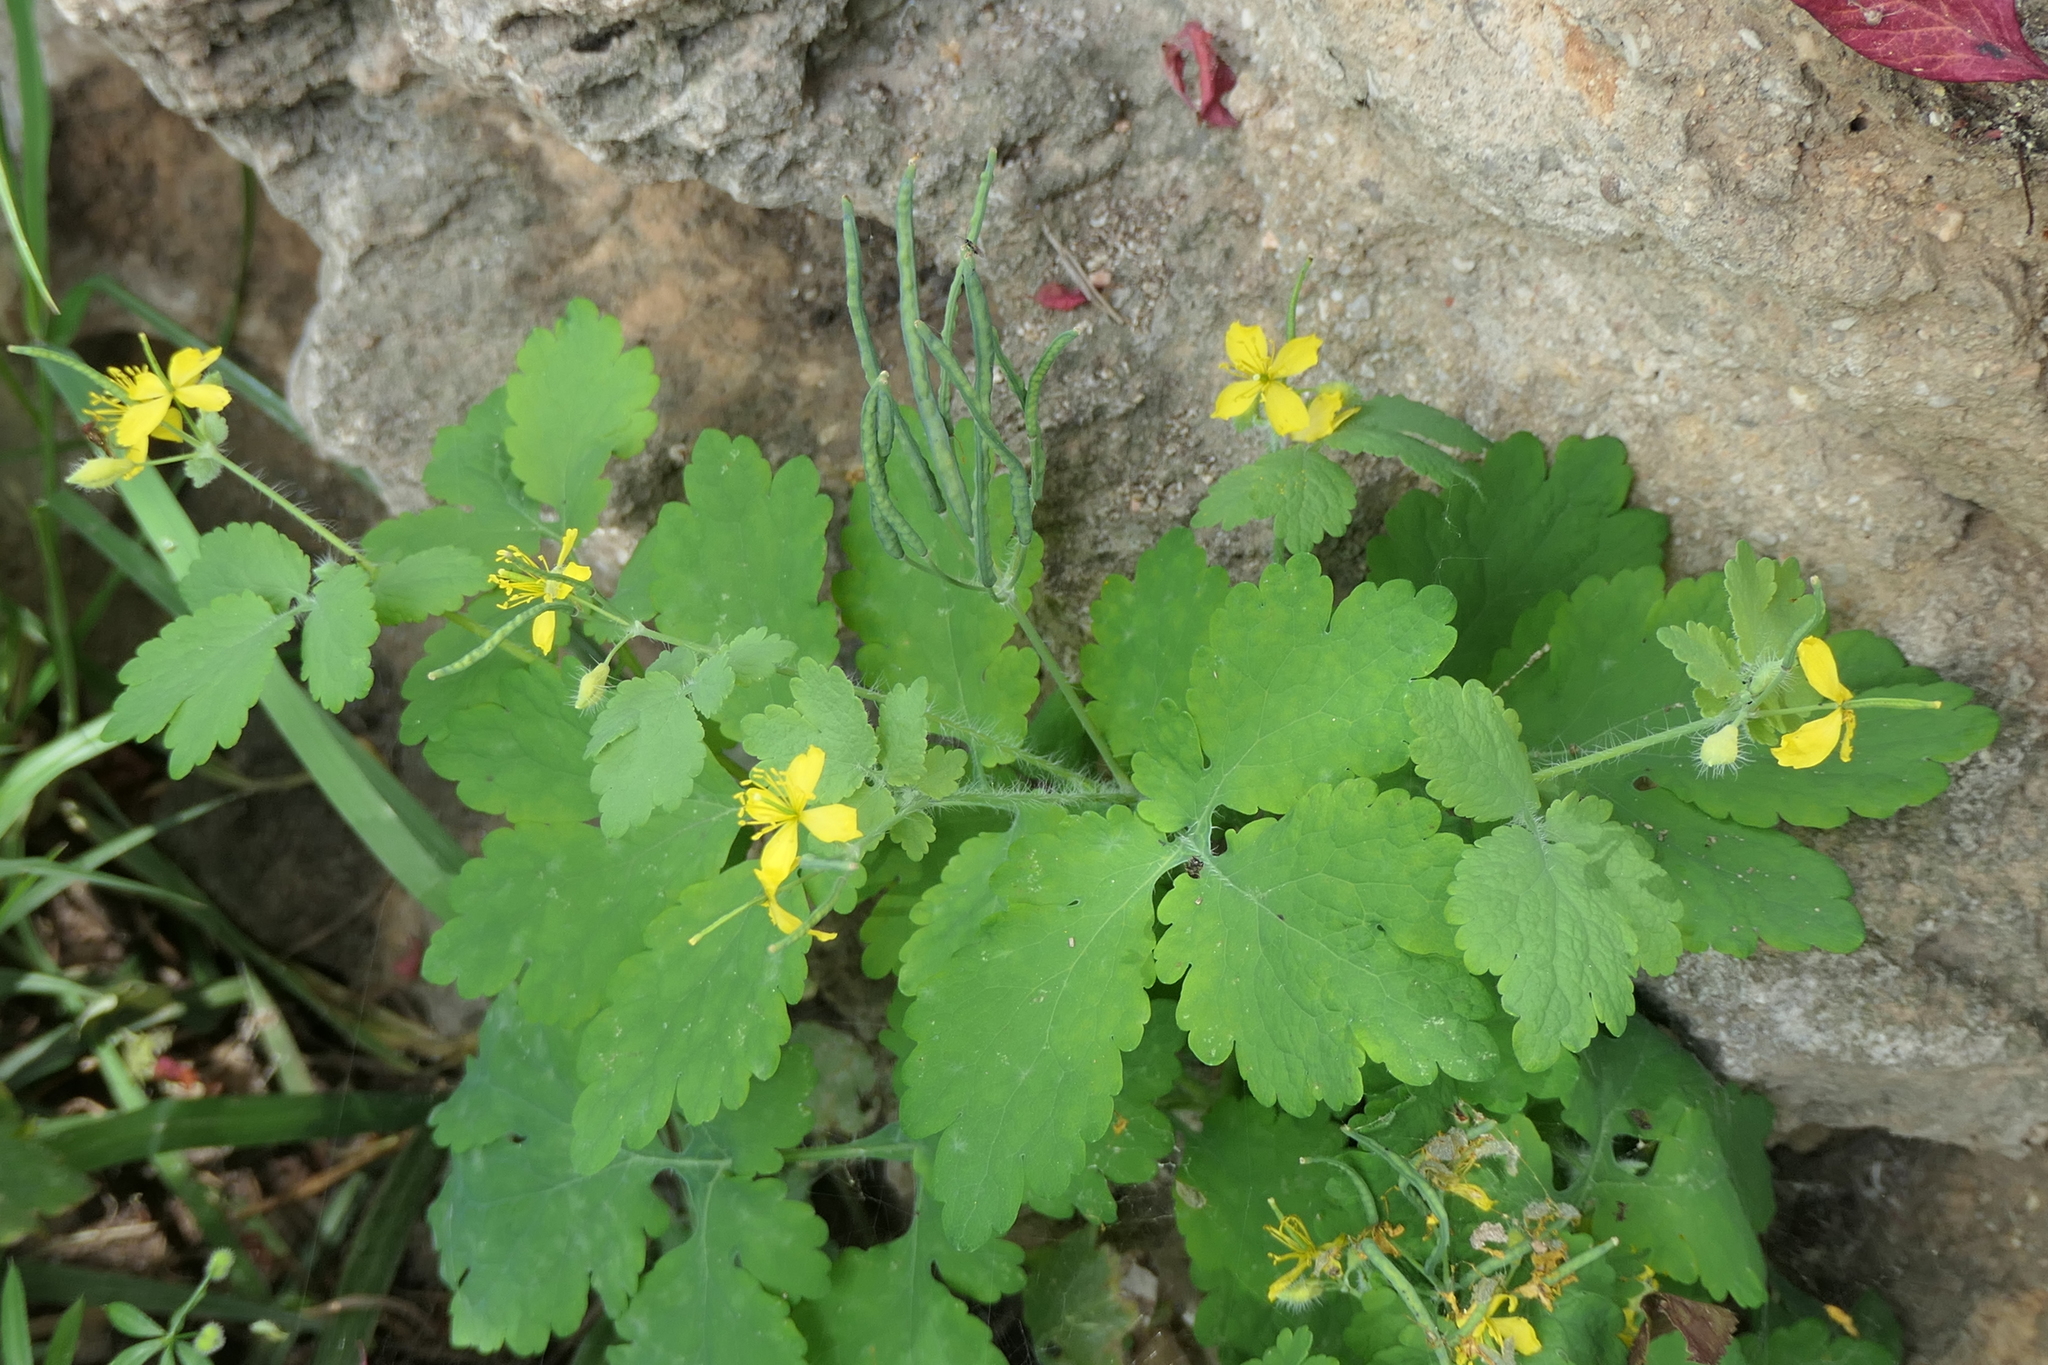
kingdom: Plantae
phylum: Tracheophyta
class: Magnoliopsida
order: Ranunculales
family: Papaveraceae
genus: Chelidonium
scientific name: Chelidonium majus
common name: Greater celandine
